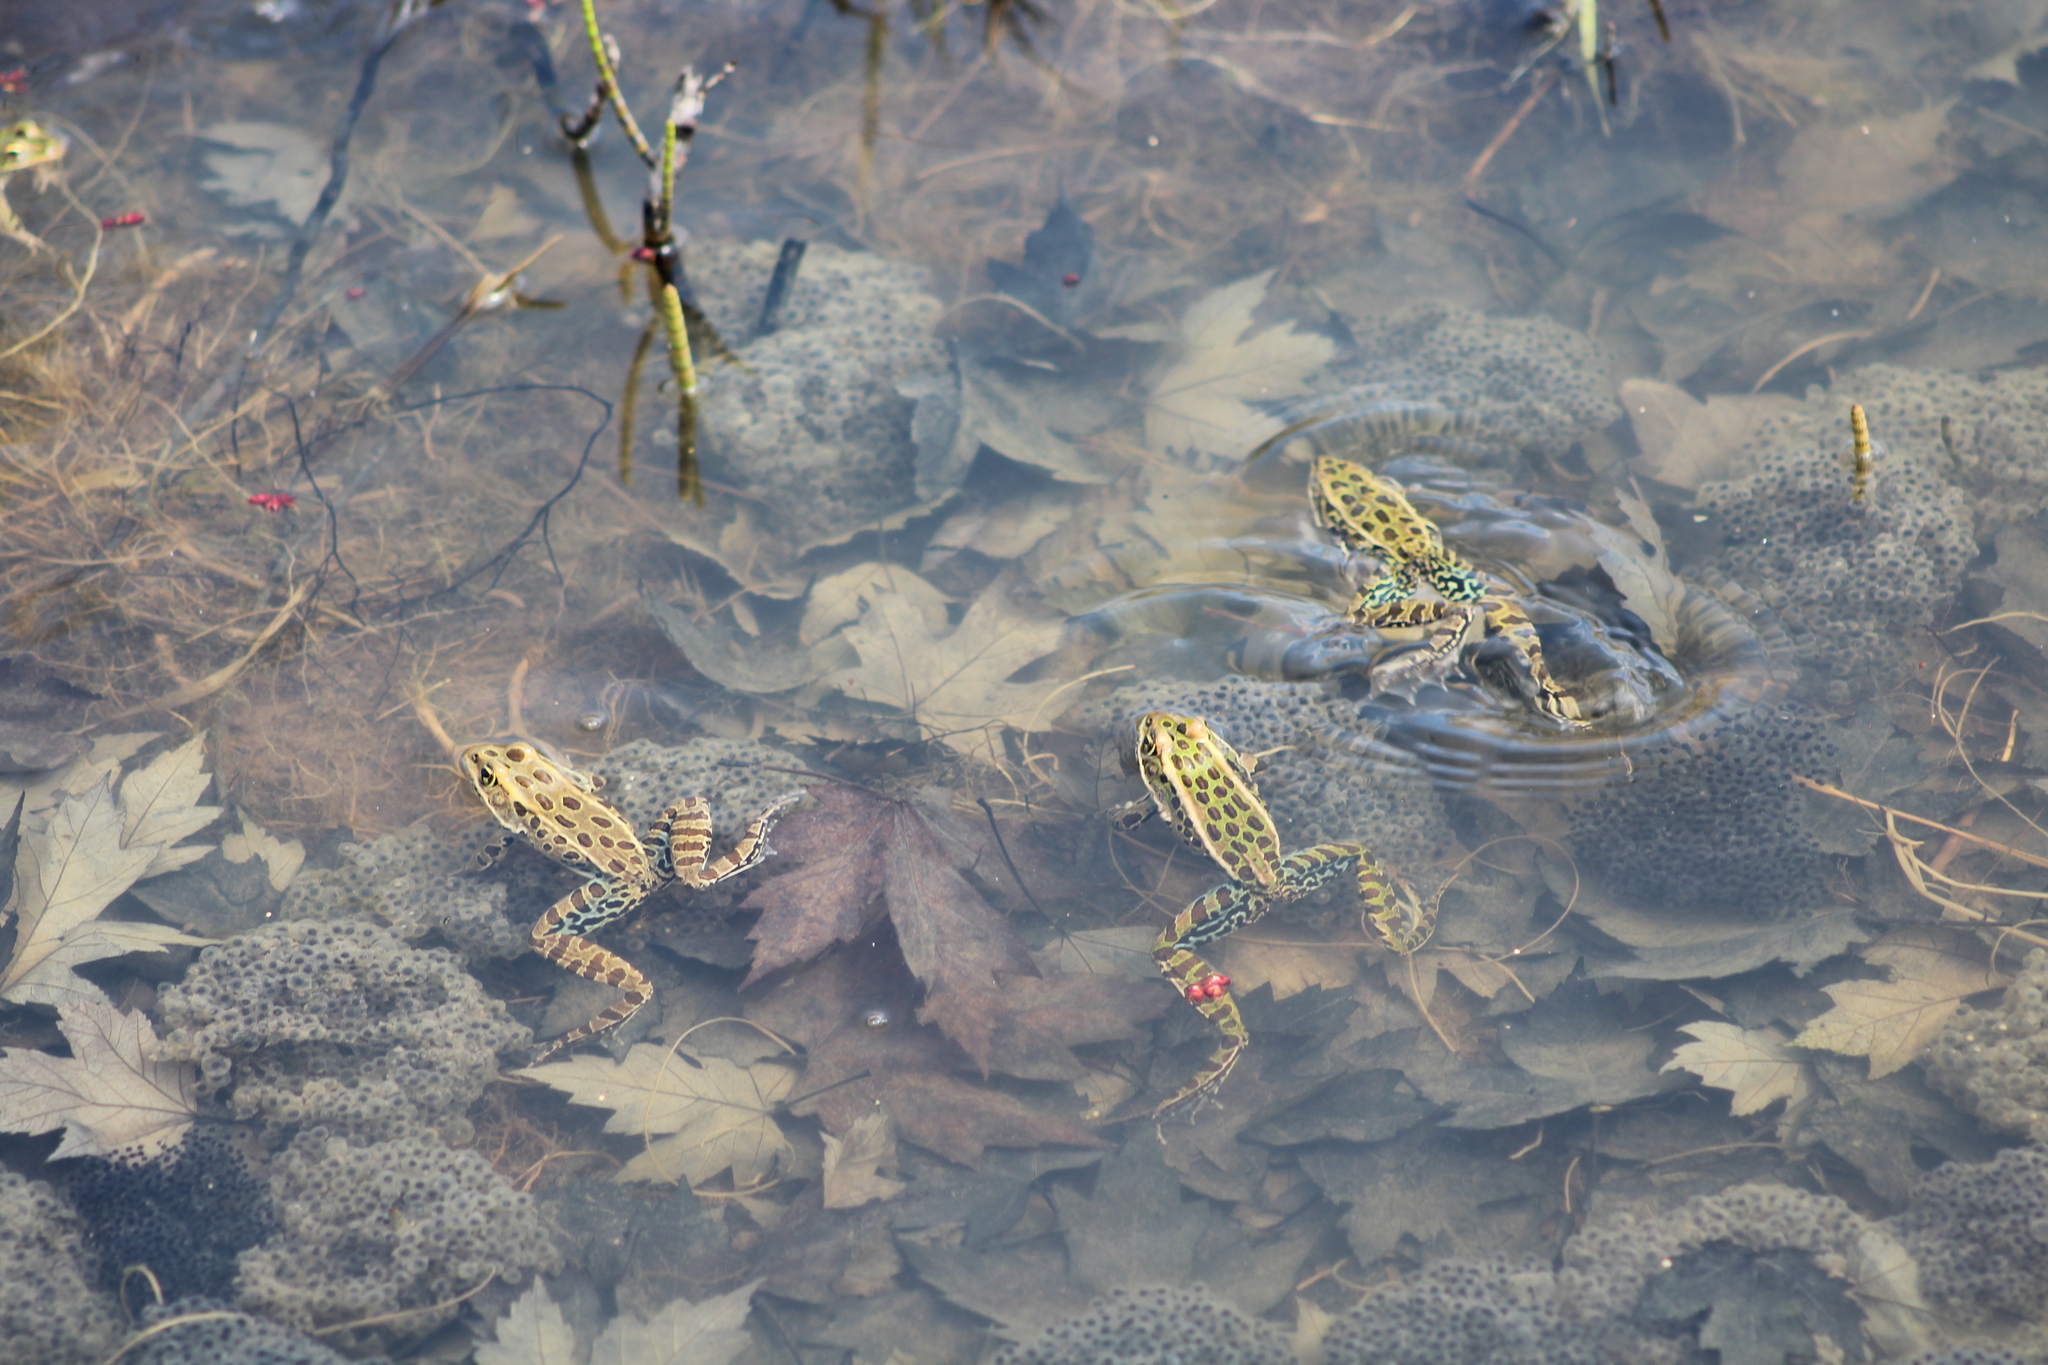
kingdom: Animalia
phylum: Chordata
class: Amphibia
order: Anura
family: Ranidae
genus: Lithobates
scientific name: Lithobates pipiens
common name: Northern leopard frog
